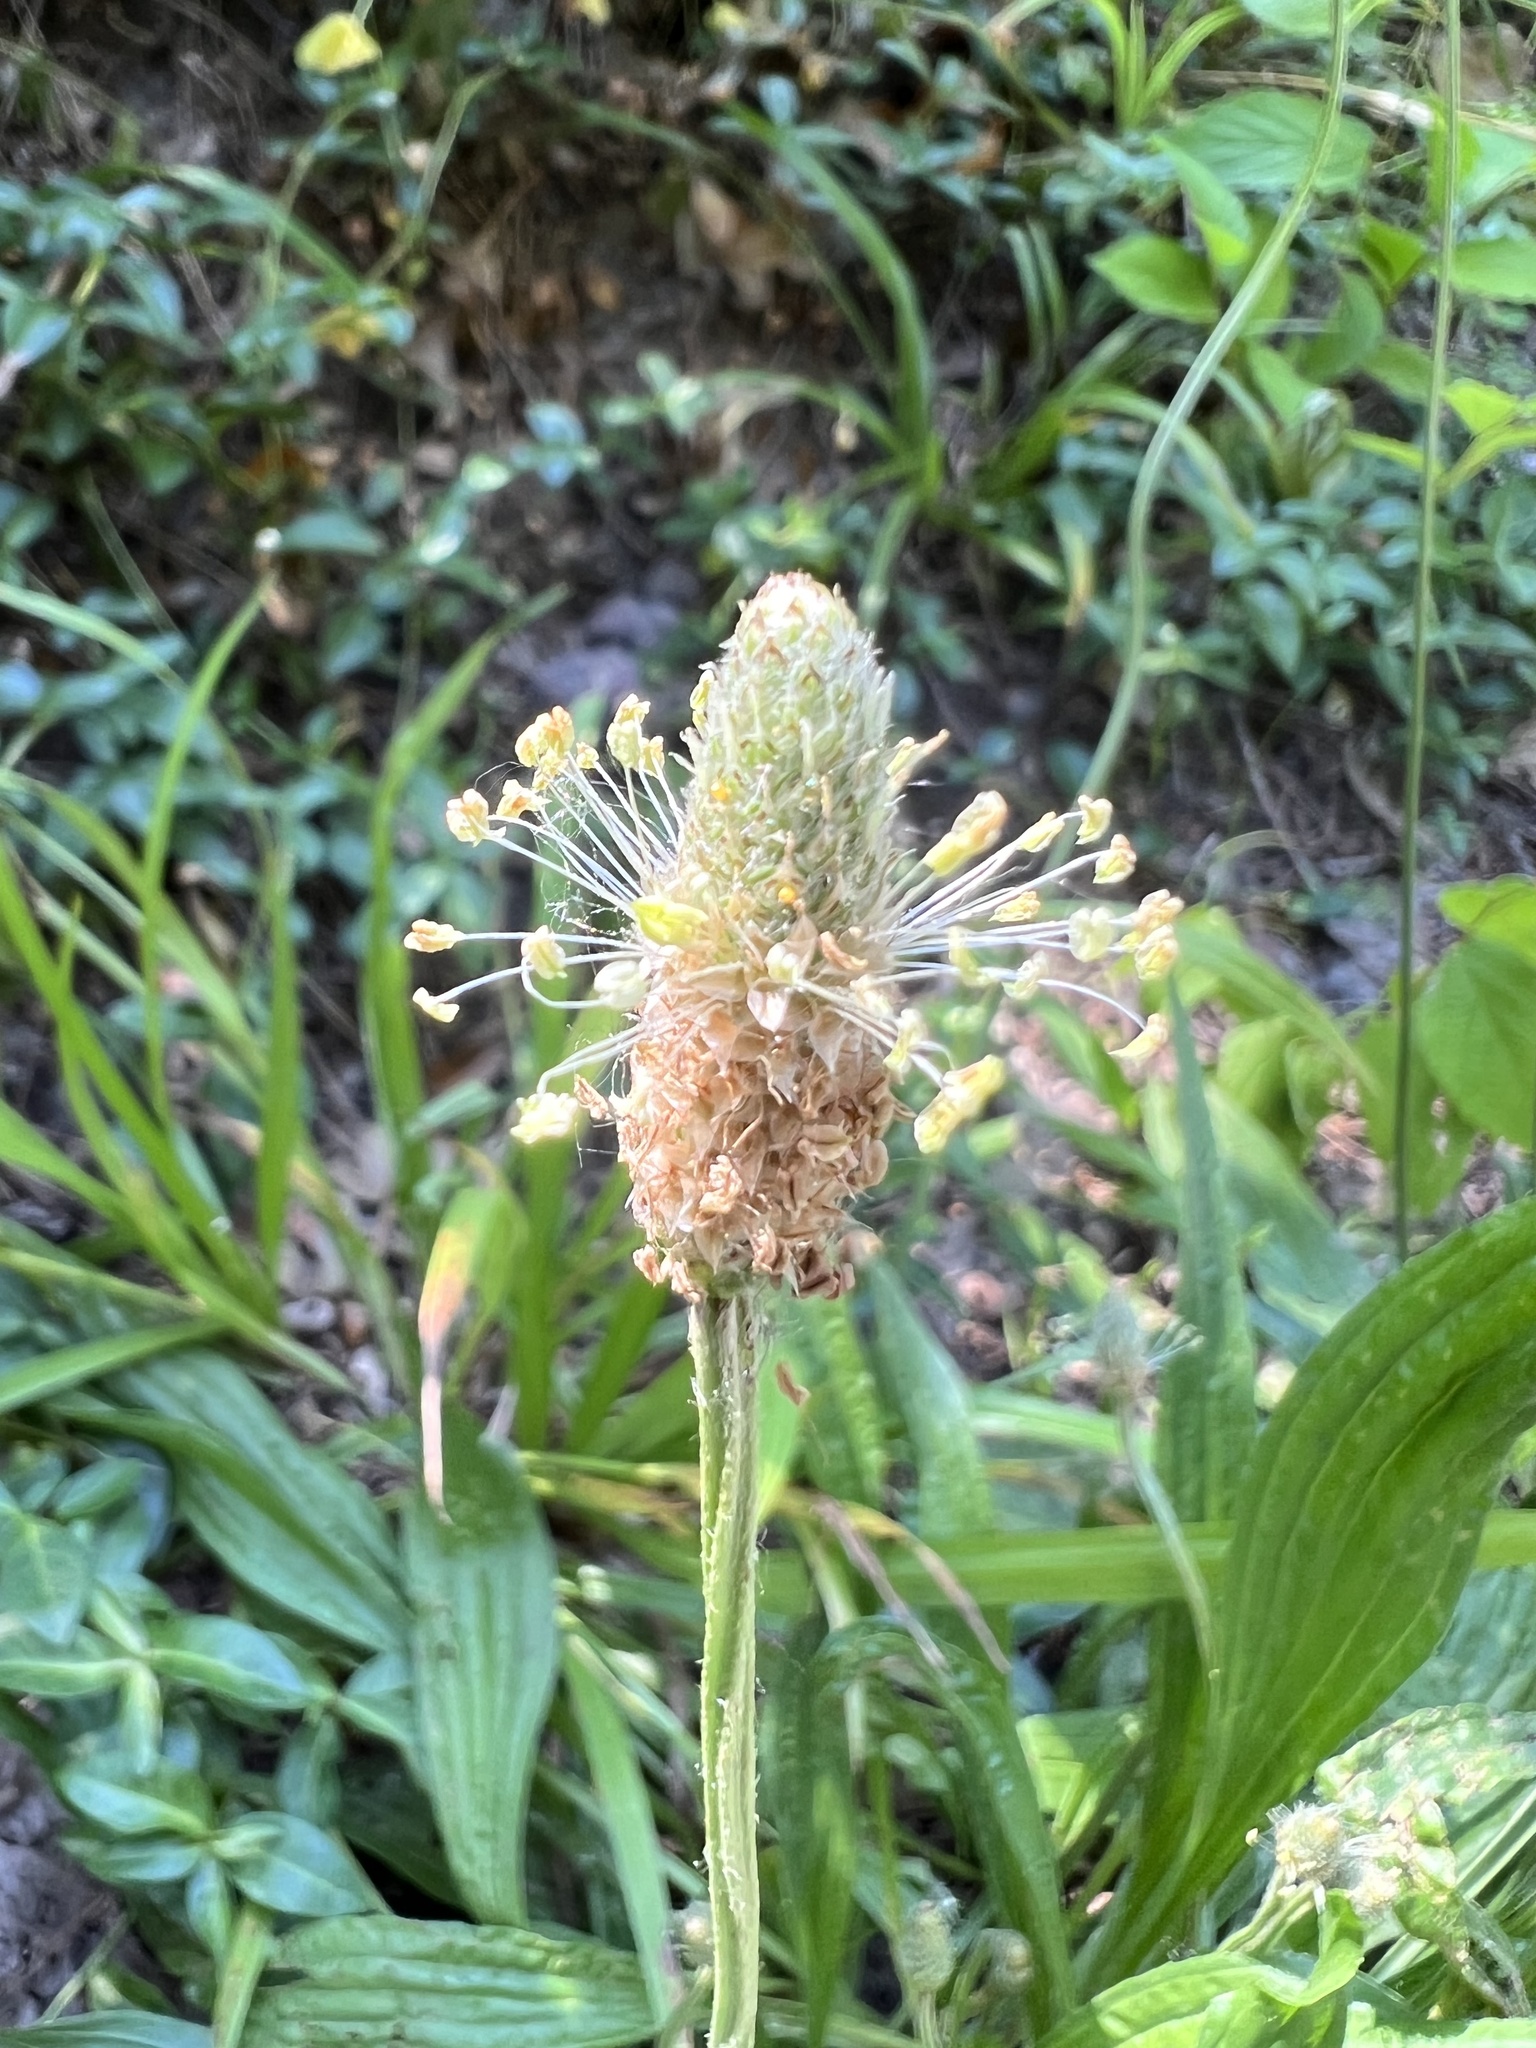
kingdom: Plantae
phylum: Tracheophyta
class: Magnoliopsida
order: Lamiales
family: Plantaginaceae
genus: Plantago
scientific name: Plantago lanceolata
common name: Ribwort plantain
